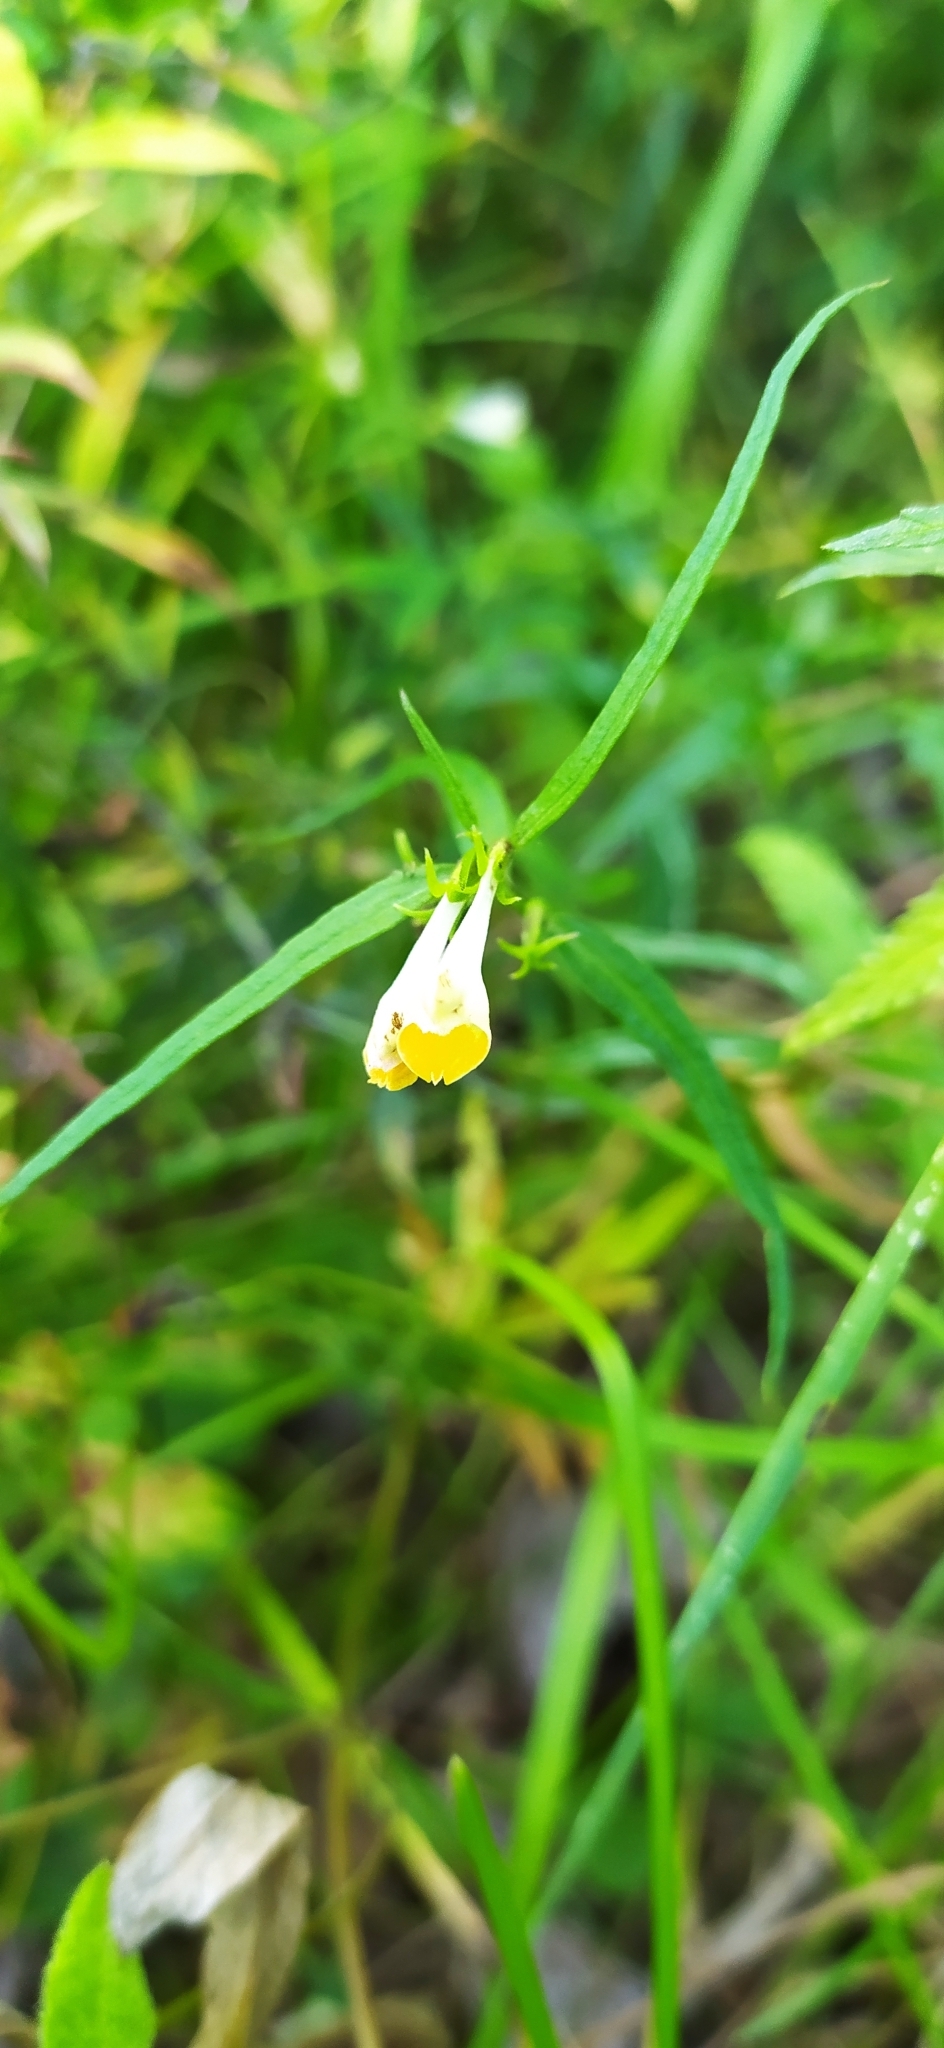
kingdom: Plantae
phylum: Tracheophyta
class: Magnoliopsida
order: Lamiales
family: Orobanchaceae
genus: Melampyrum
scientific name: Melampyrum pratense
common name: Common cow-wheat
